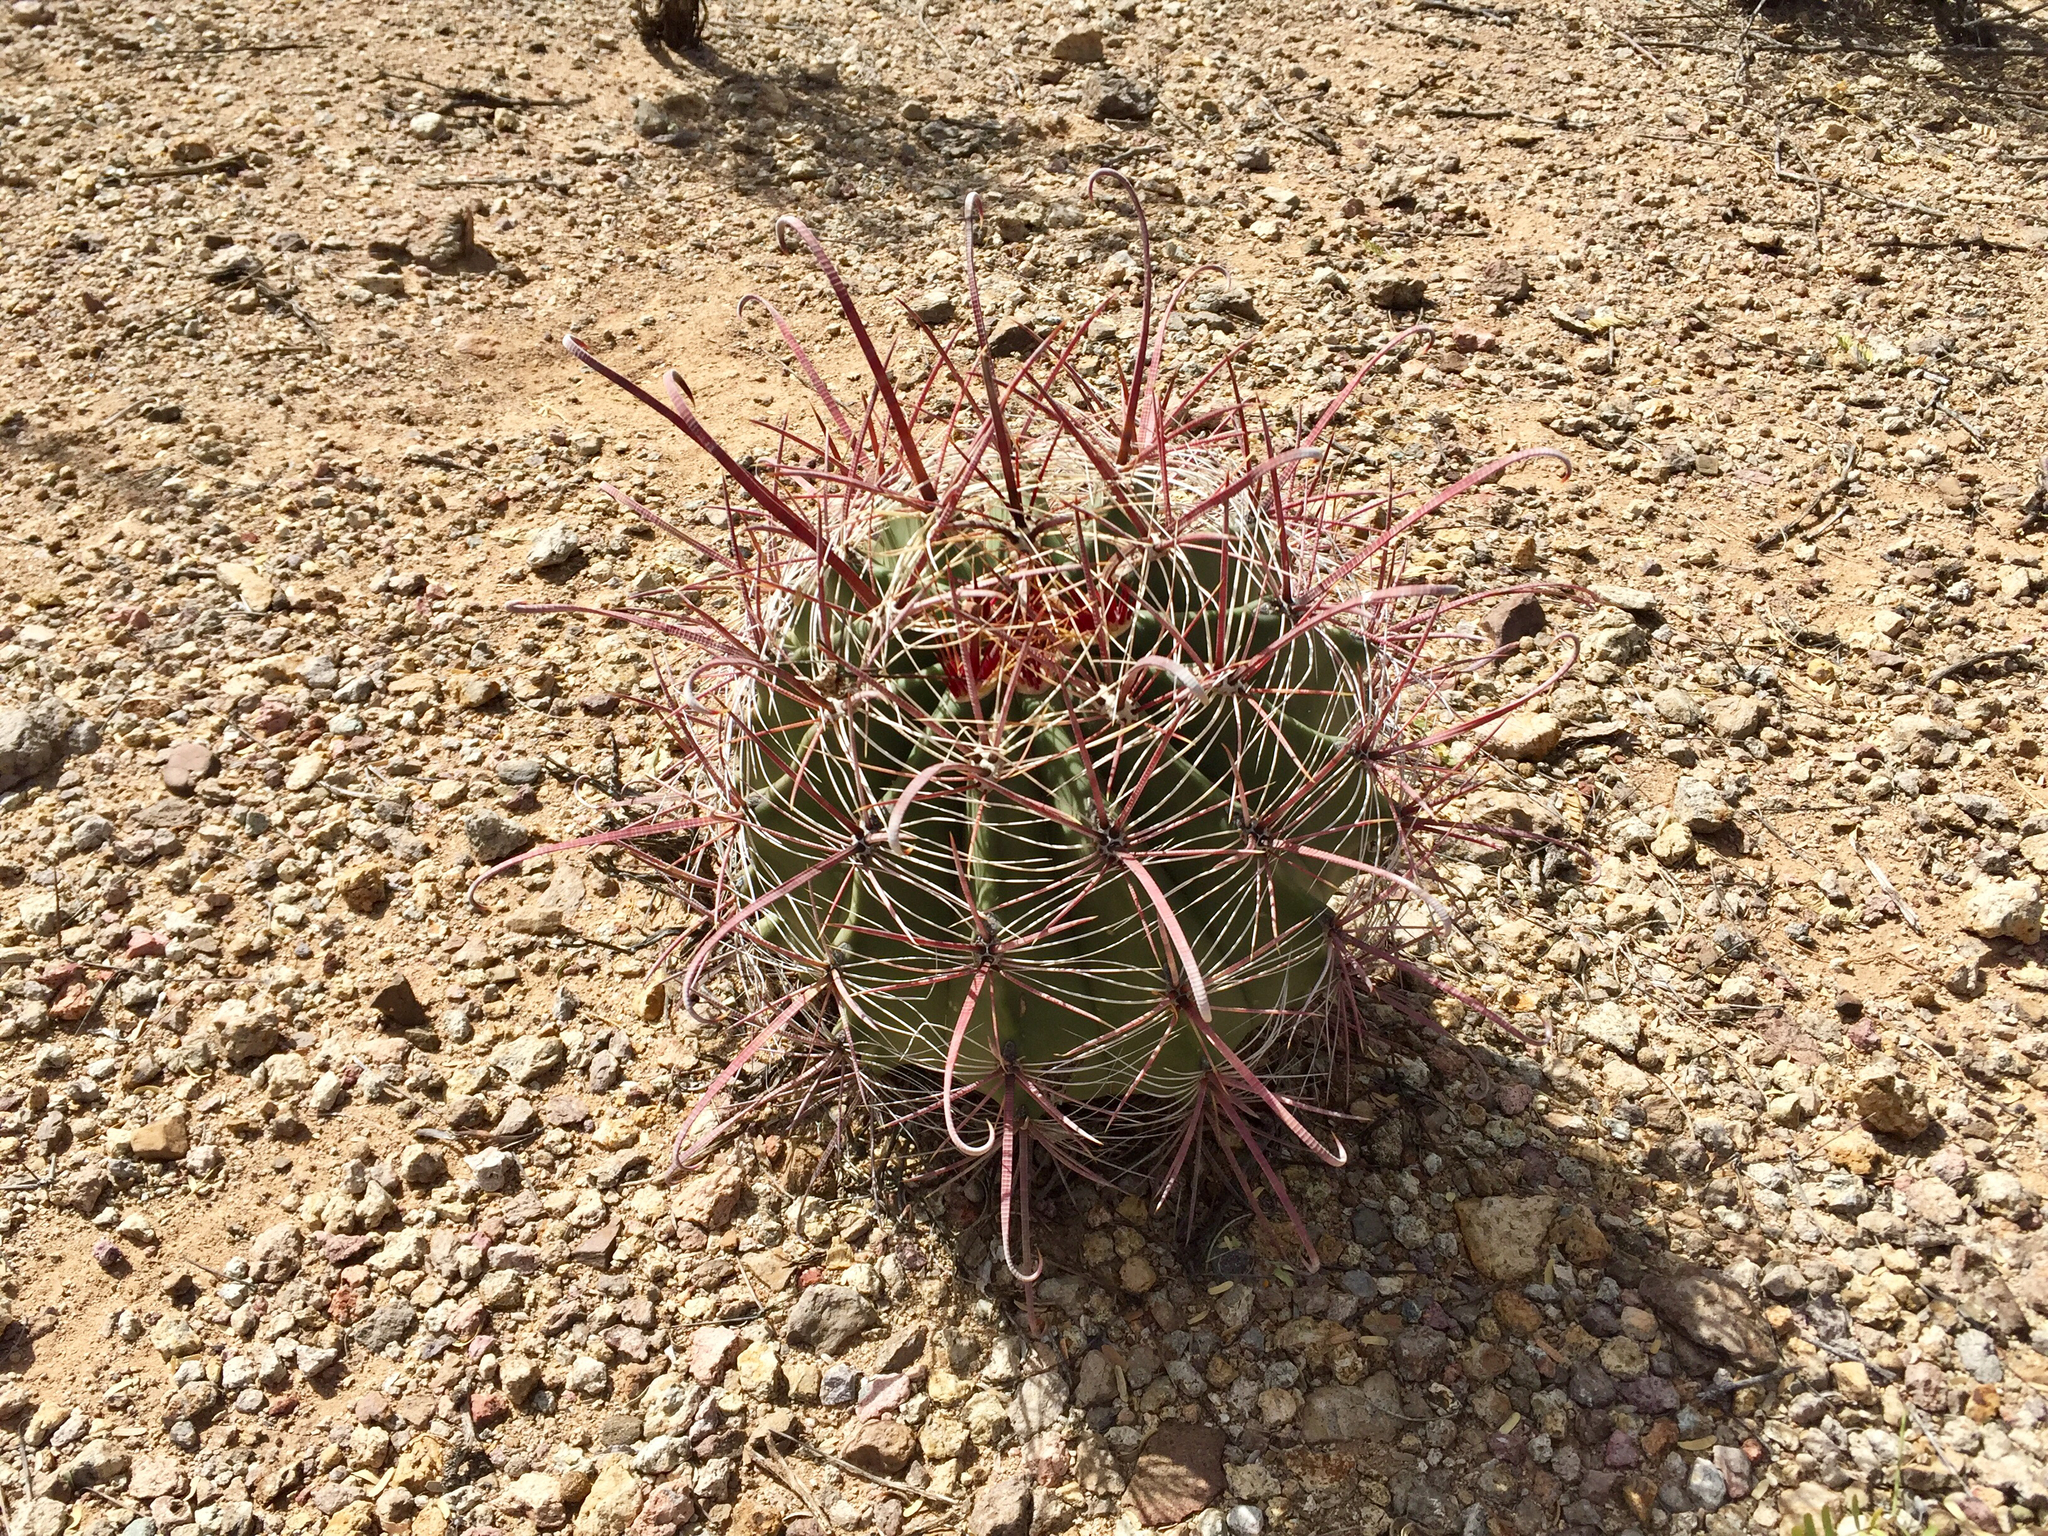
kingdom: Plantae
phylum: Tracheophyta
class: Magnoliopsida
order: Caryophyllales
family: Cactaceae
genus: Ferocactus
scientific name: Ferocactus wislizeni
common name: Candy barrel cactus
